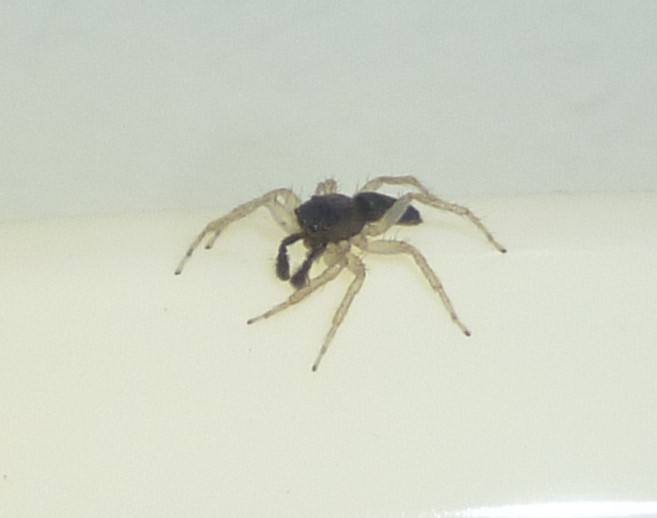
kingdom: Animalia
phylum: Arthropoda
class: Arachnida
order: Araneae
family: Salticidae
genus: Maevia
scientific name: Maevia inclemens
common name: Dimorphic jumper
